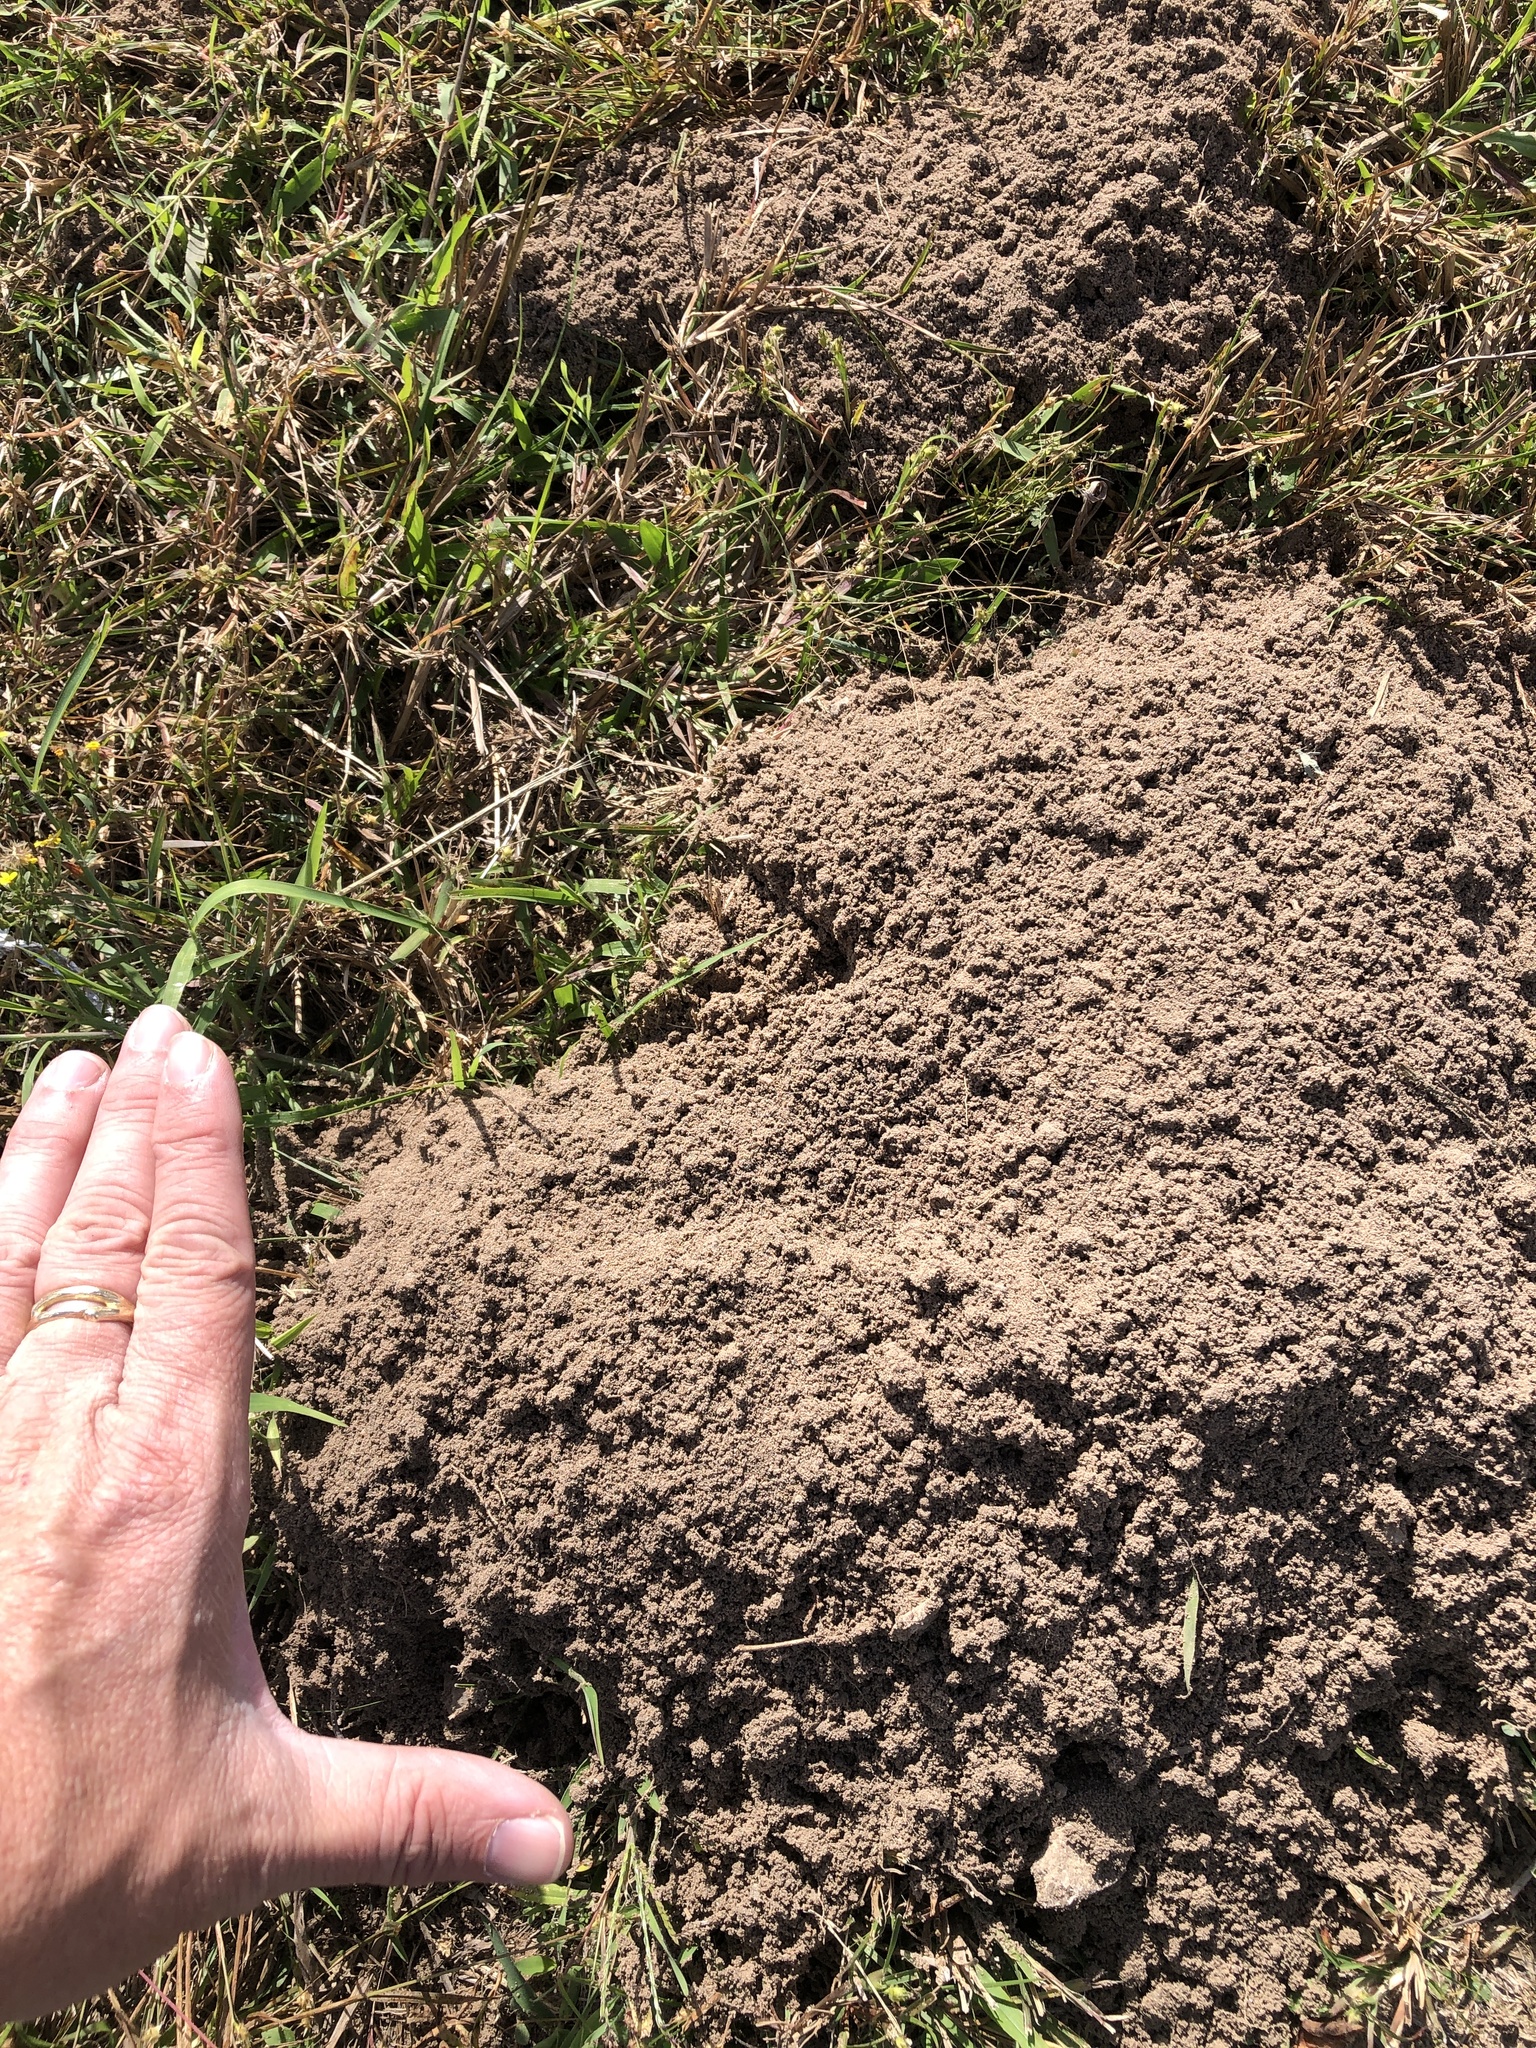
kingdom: Animalia
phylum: Chordata
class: Mammalia
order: Rodentia
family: Geomyidae
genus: Geomys
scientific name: Geomys attwateri
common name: Attwater's pocket gopher
